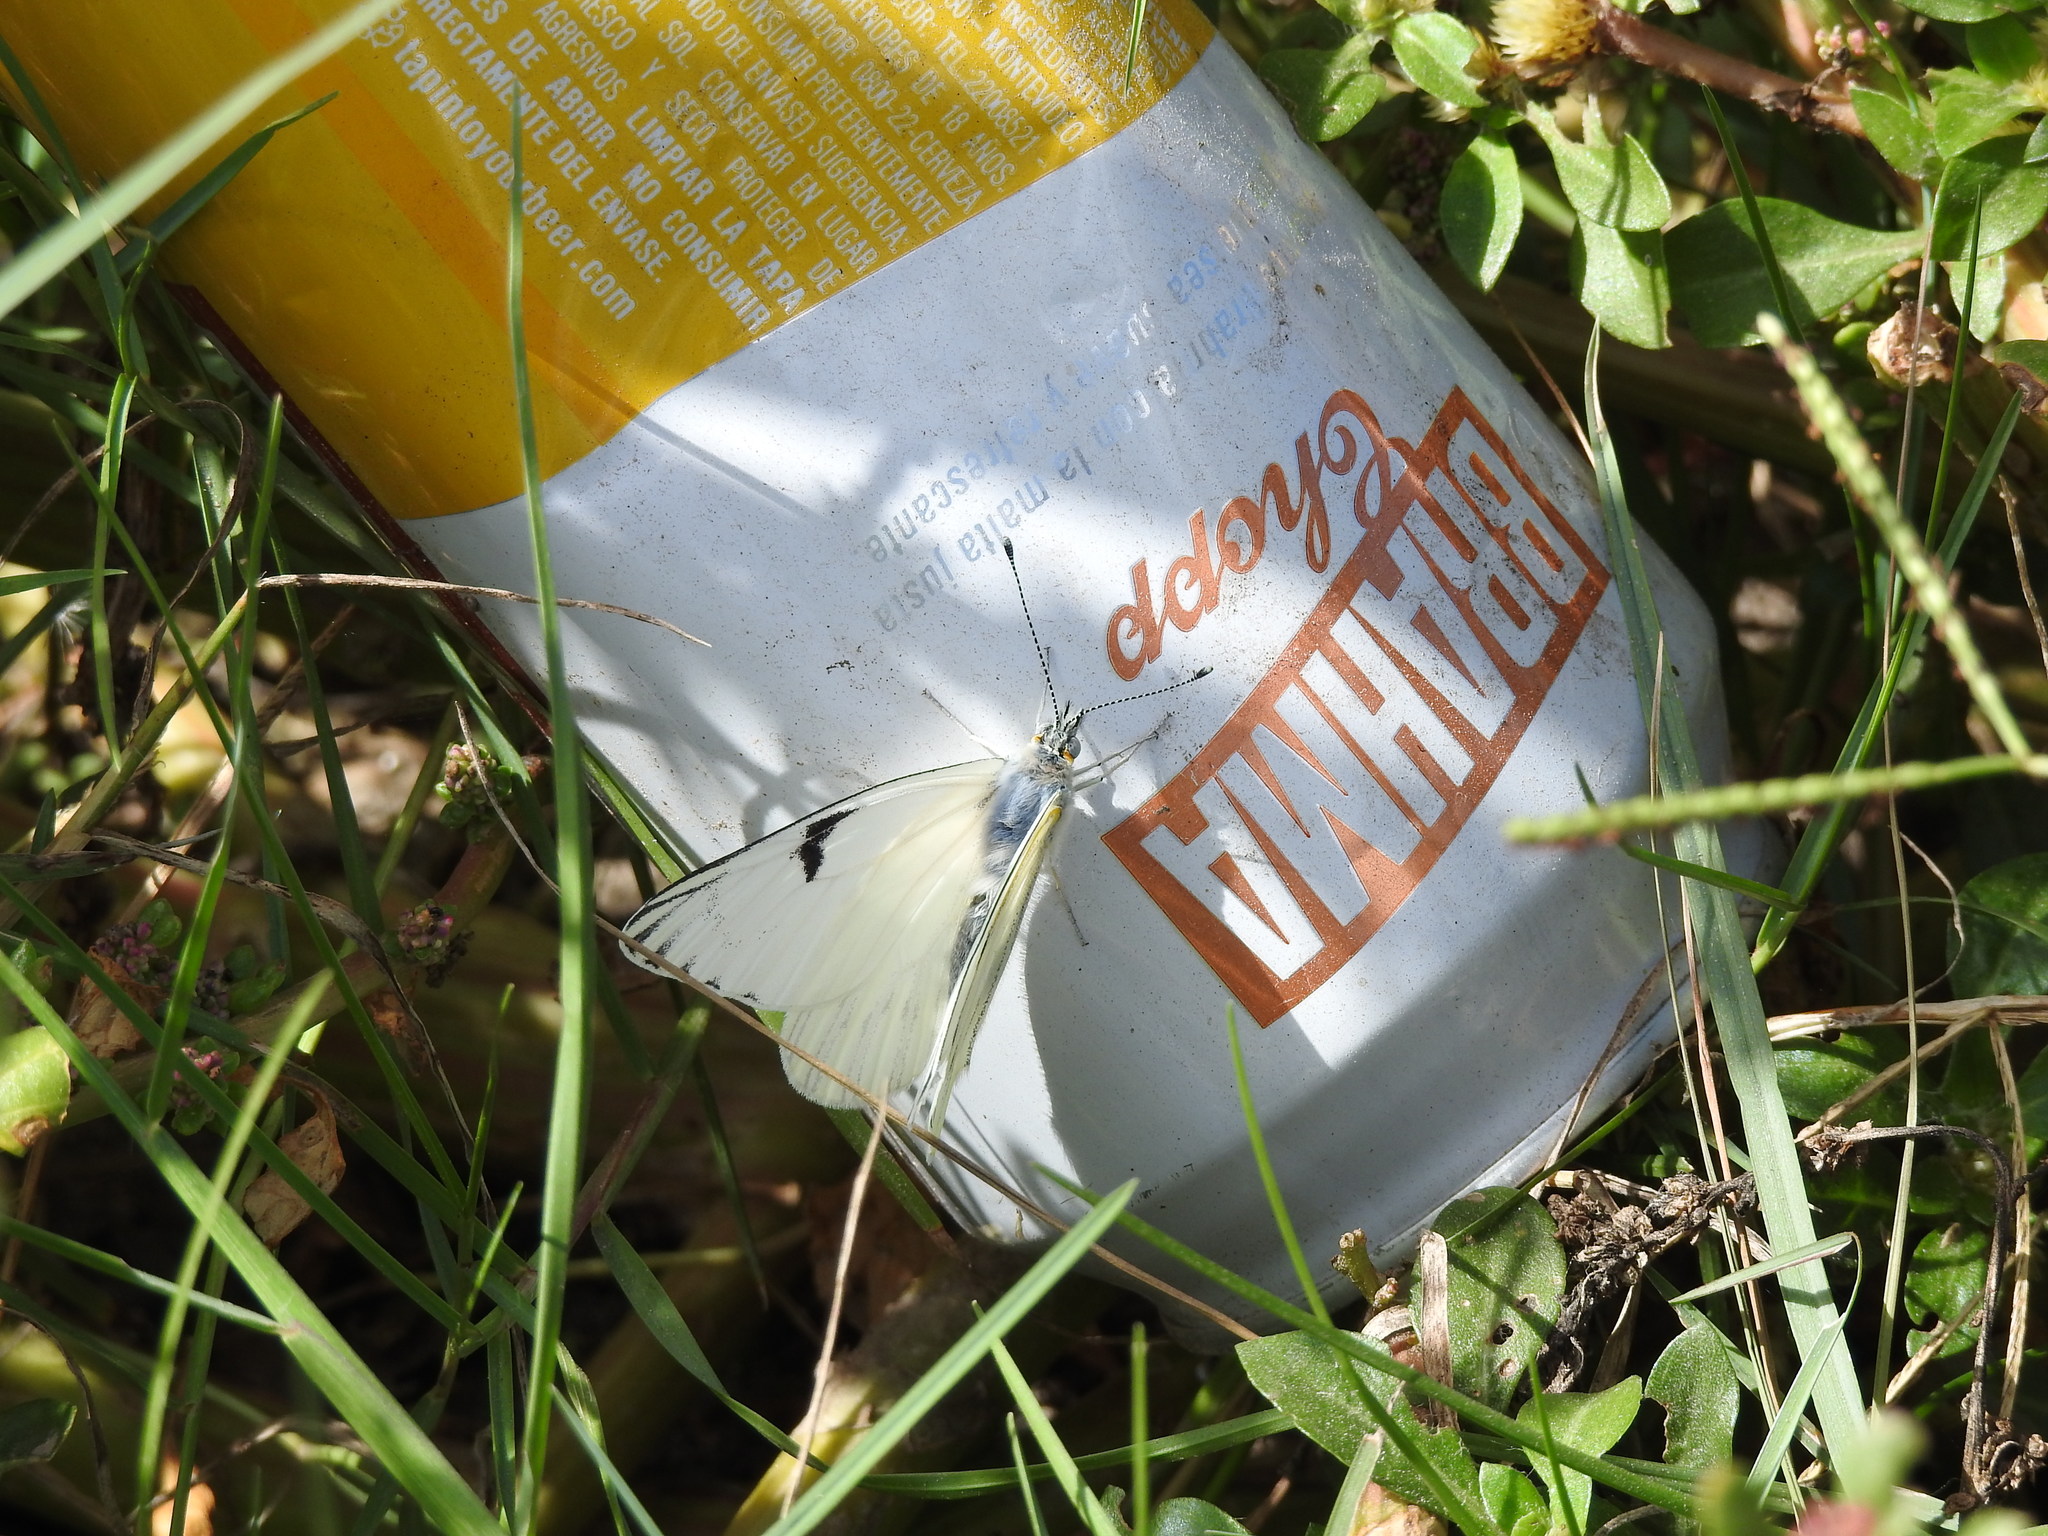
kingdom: Animalia
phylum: Arthropoda
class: Insecta
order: Lepidoptera
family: Pieridae
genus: Tatochila
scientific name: Tatochila mercedis
